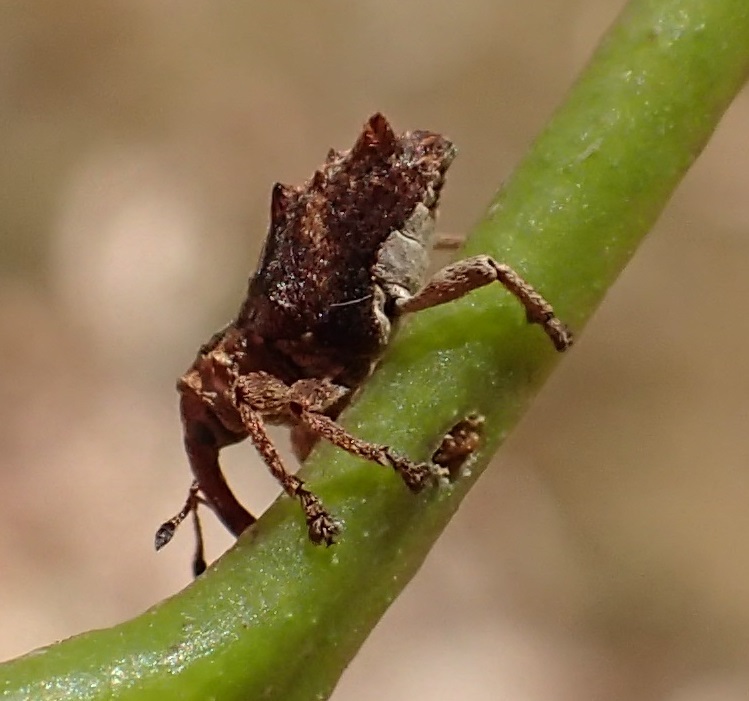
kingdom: Animalia
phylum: Arthropoda
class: Insecta
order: Coleoptera
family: Curculionidae
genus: Myllorhinus
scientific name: Myllorhinus dentiferus
